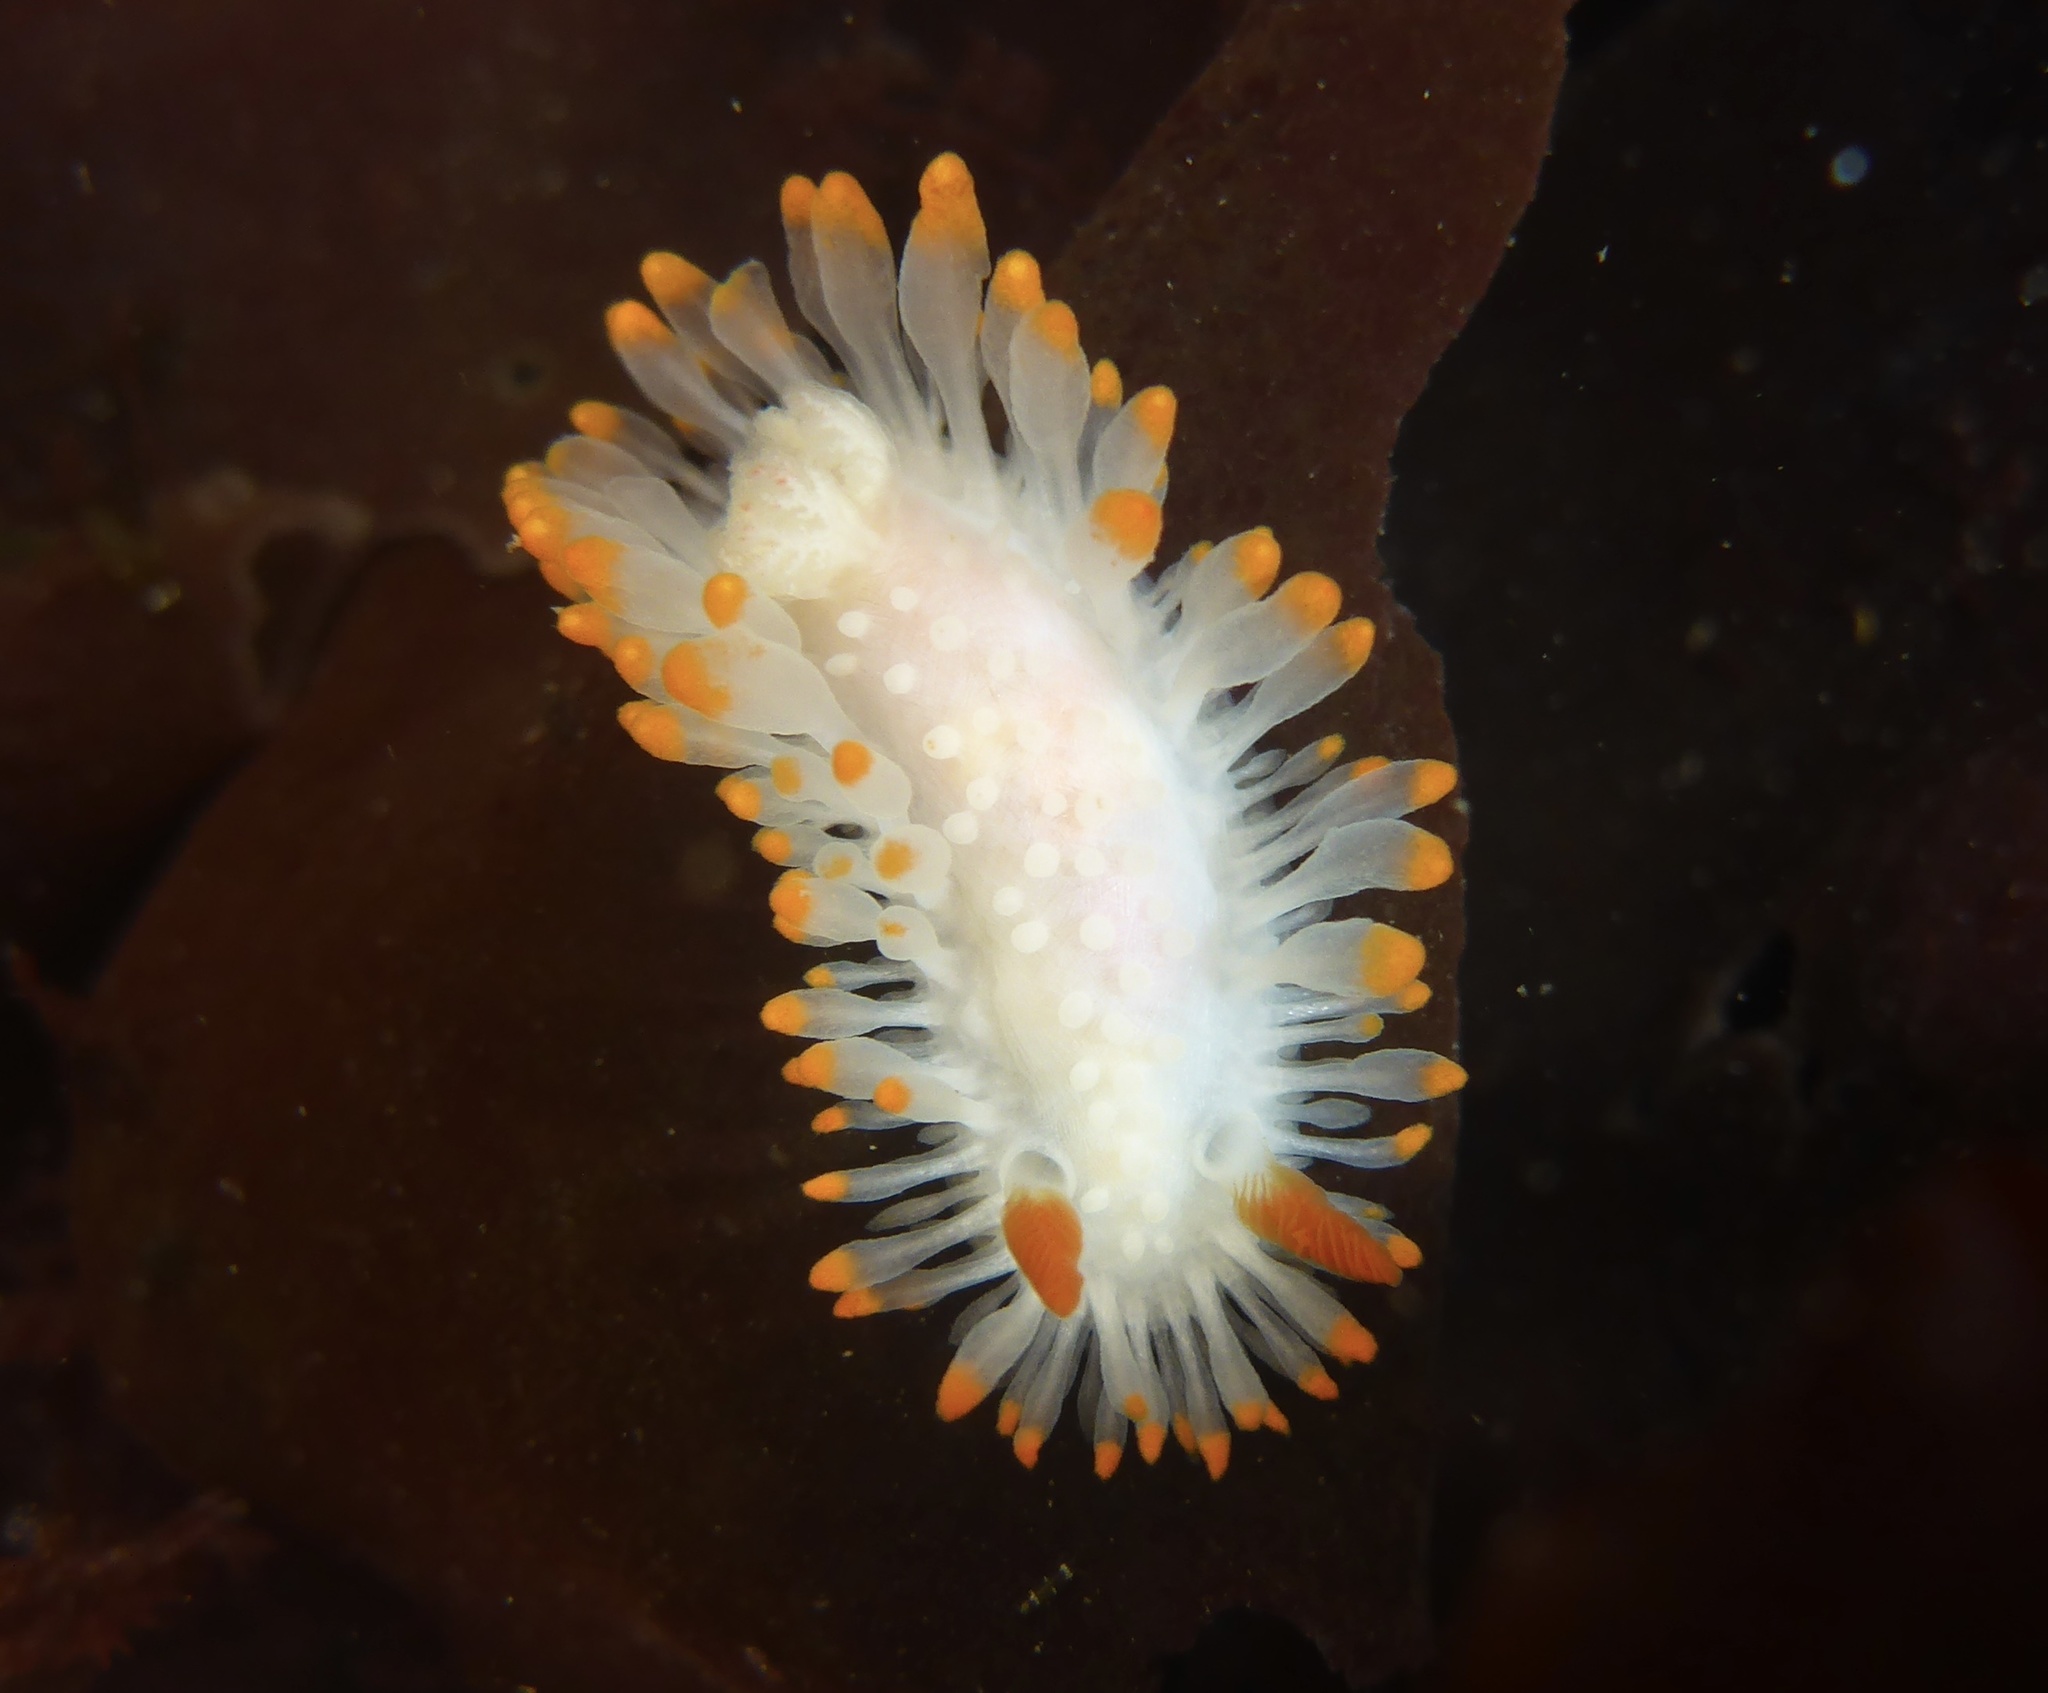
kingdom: Animalia
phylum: Mollusca
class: Gastropoda
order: Nudibranchia
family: Polyceridae
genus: Limacia
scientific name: Limacia cockerelli
